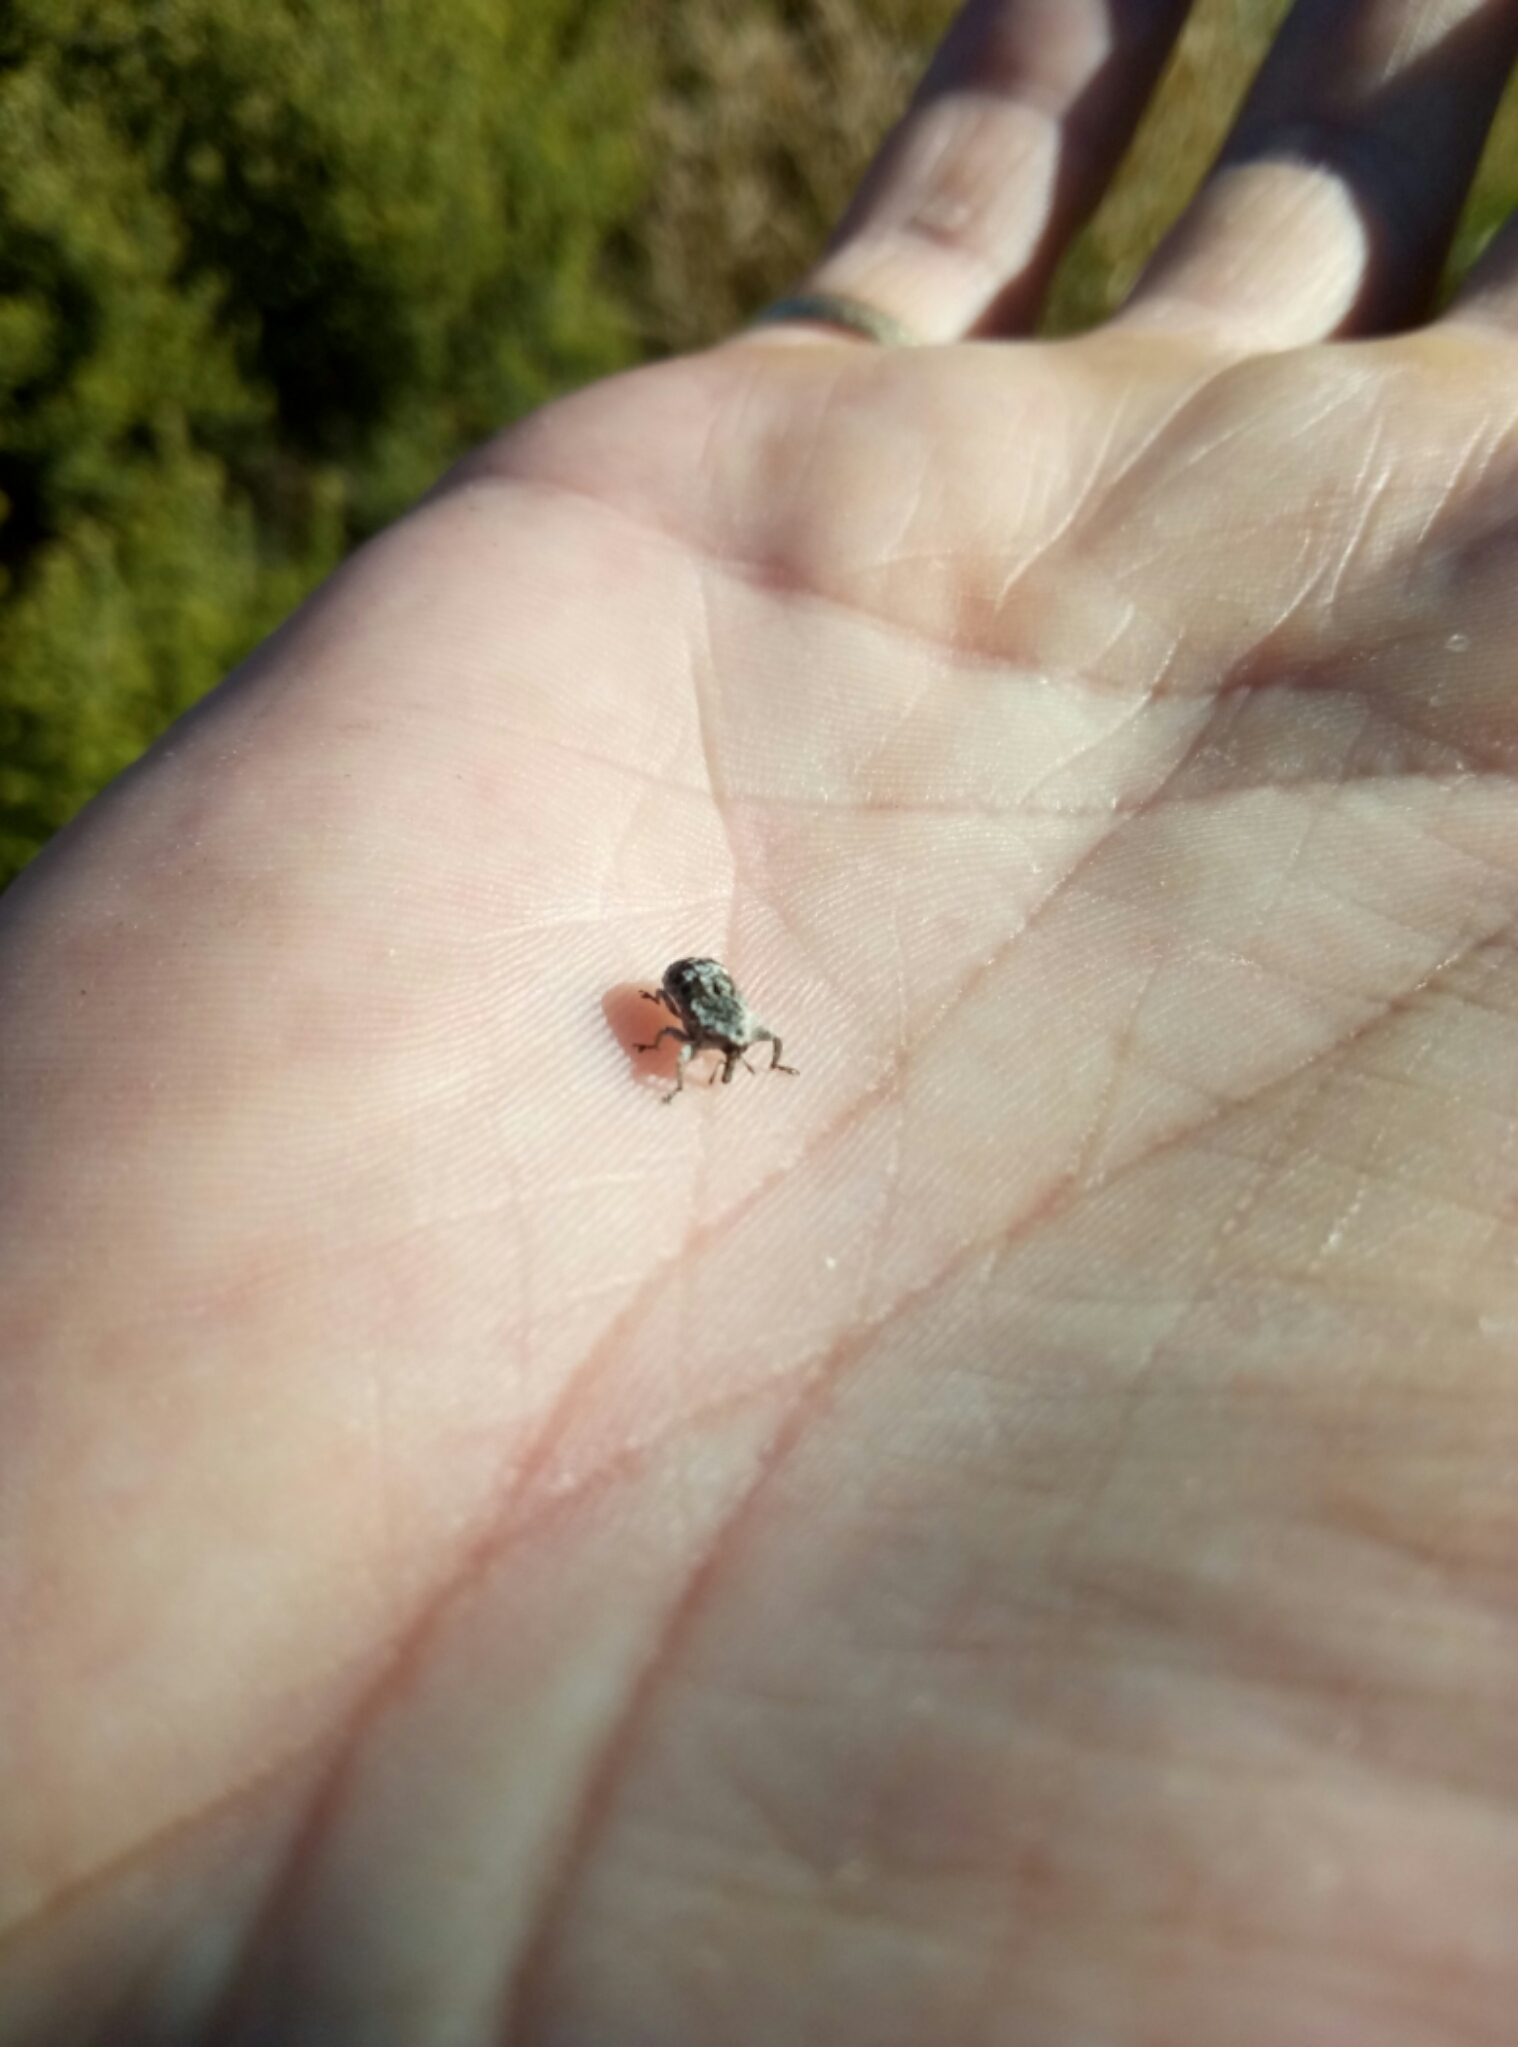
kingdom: Animalia
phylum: Arthropoda
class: Insecta
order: Coleoptera
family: Curculionidae
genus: Euthyrhinus
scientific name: Euthyrhinus squamiger
